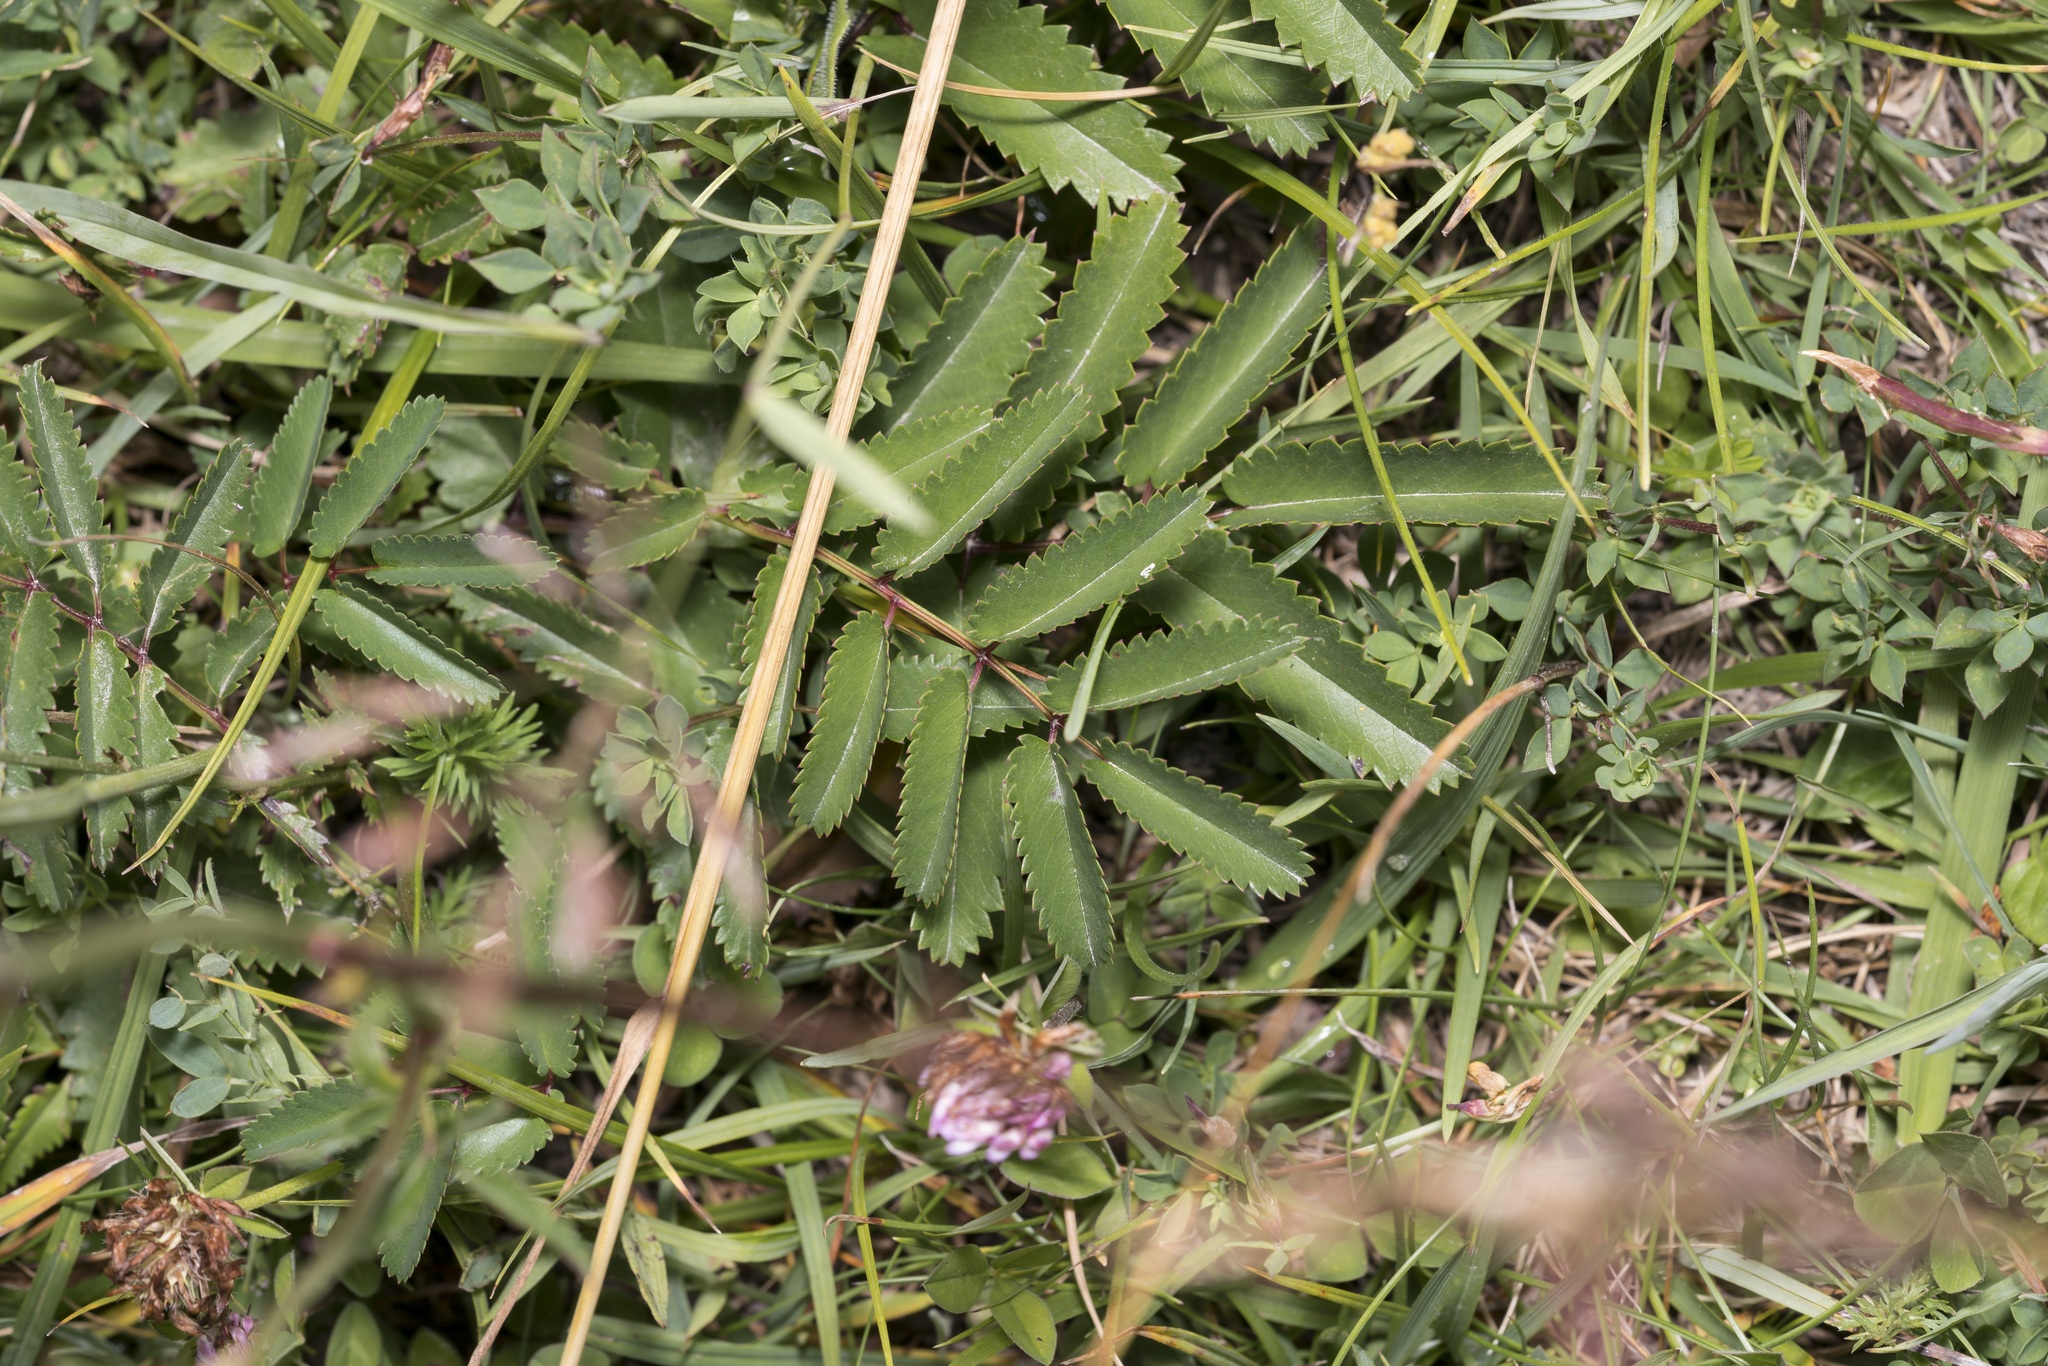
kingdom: Plantae
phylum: Tracheophyta
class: Magnoliopsida
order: Rosales
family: Rosaceae
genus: Sanguisorba
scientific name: Sanguisorba officinalis
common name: Great burnet
